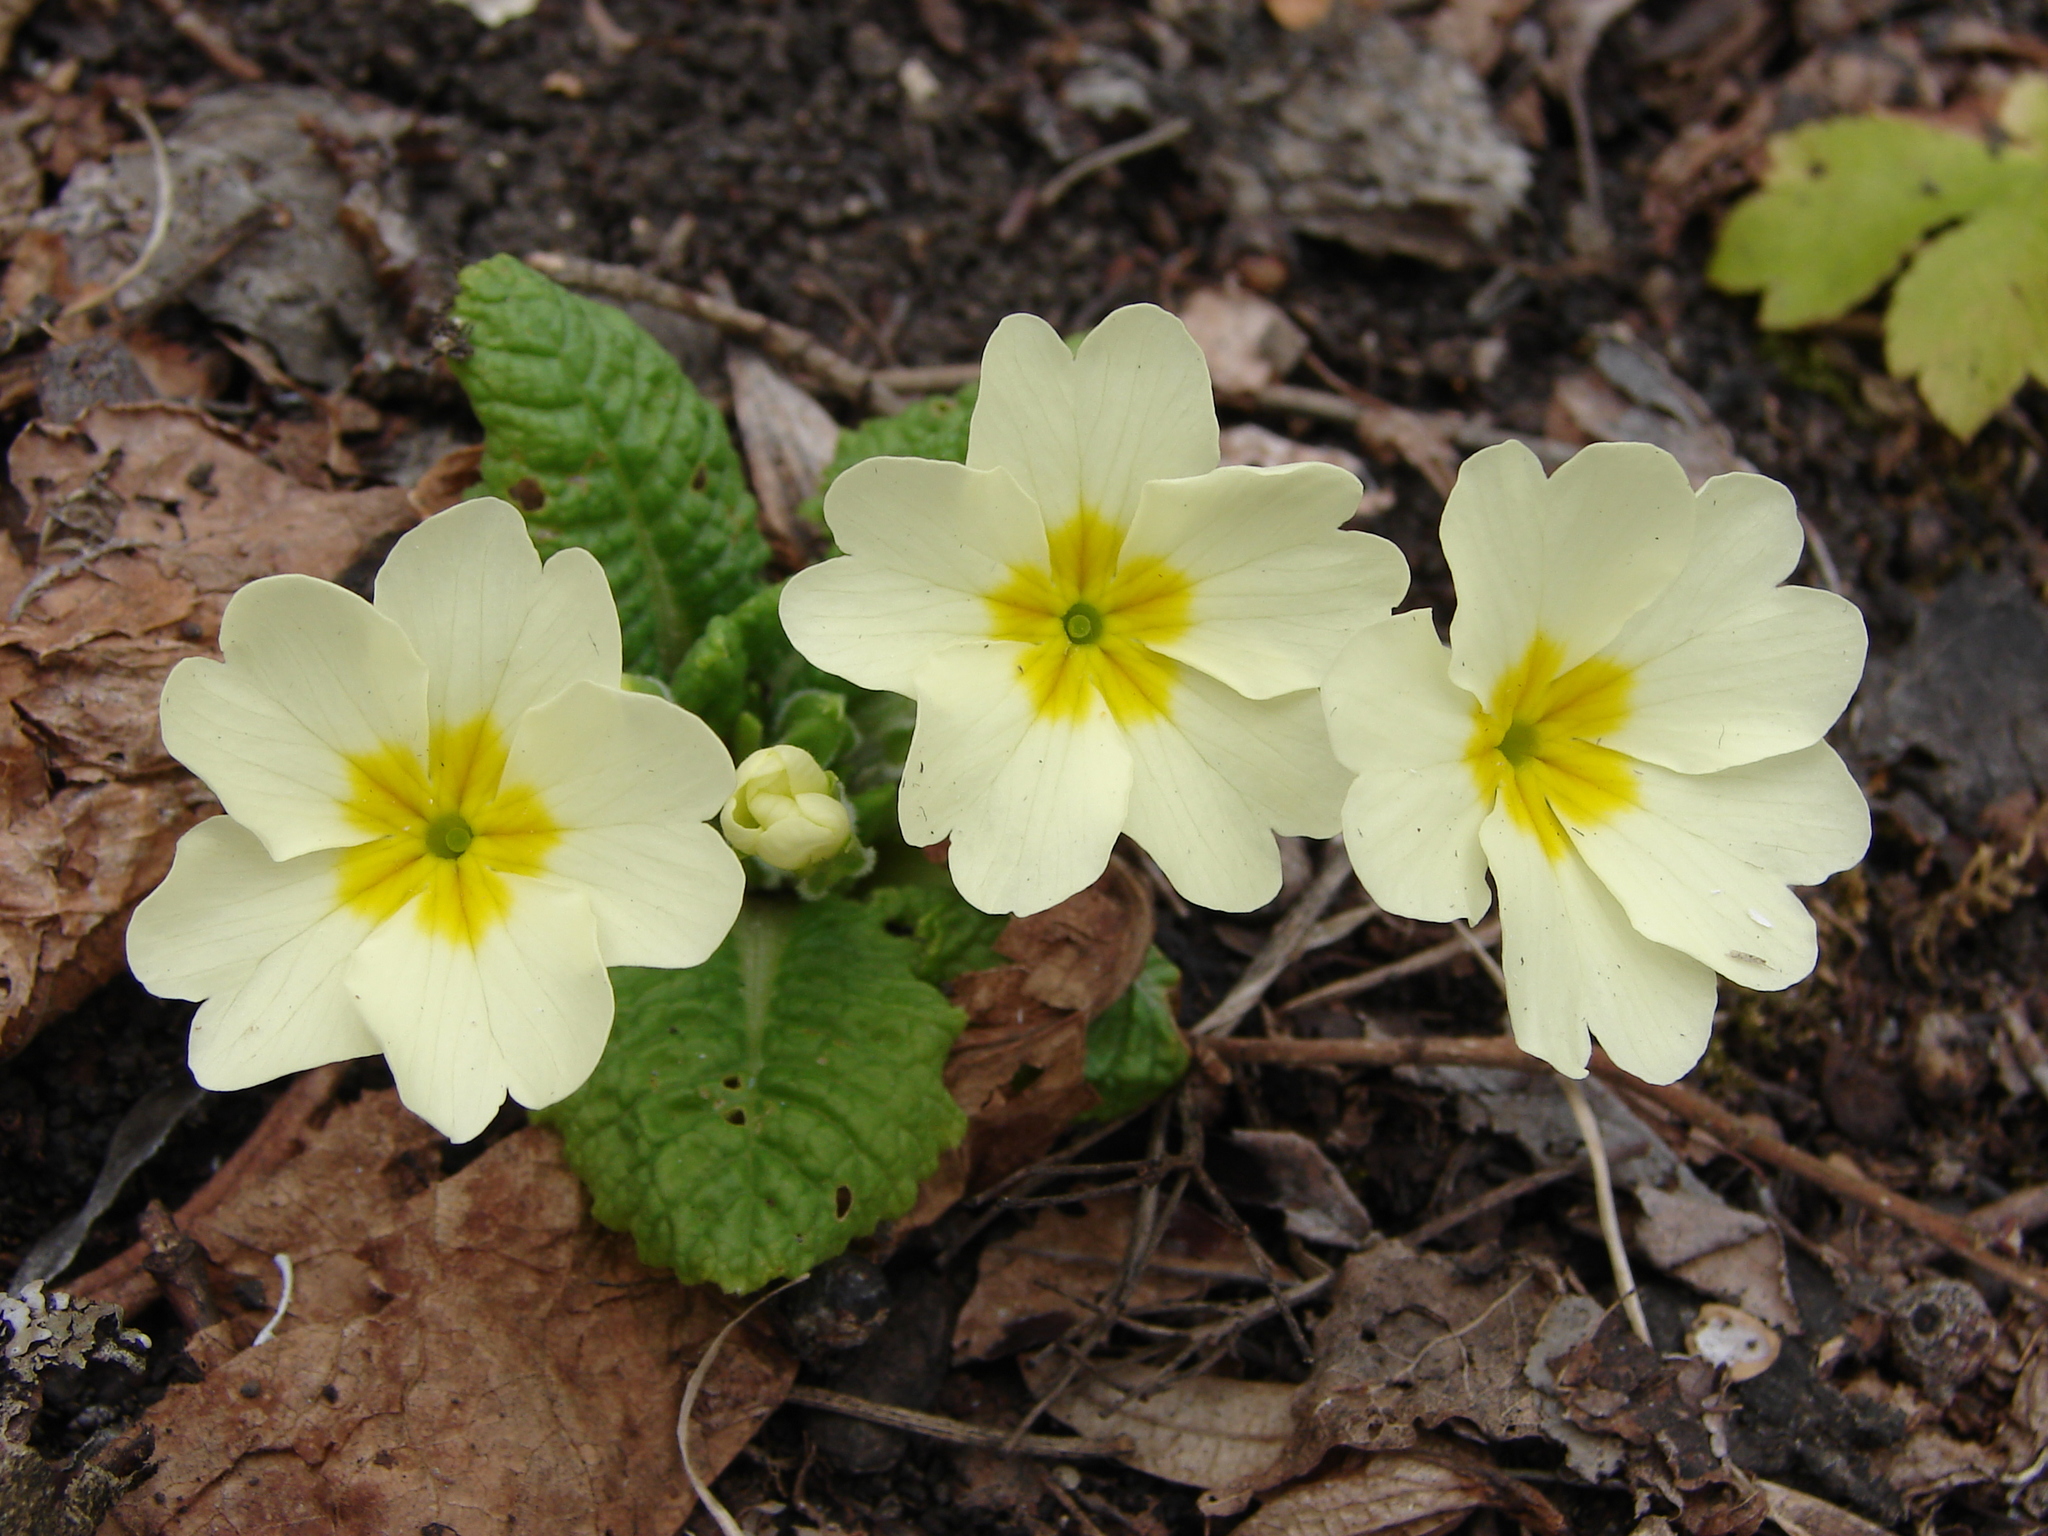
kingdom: Plantae
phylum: Tracheophyta
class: Magnoliopsida
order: Ericales
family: Primulaceae
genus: Primula
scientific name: Primula vulgaris
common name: Primrose
